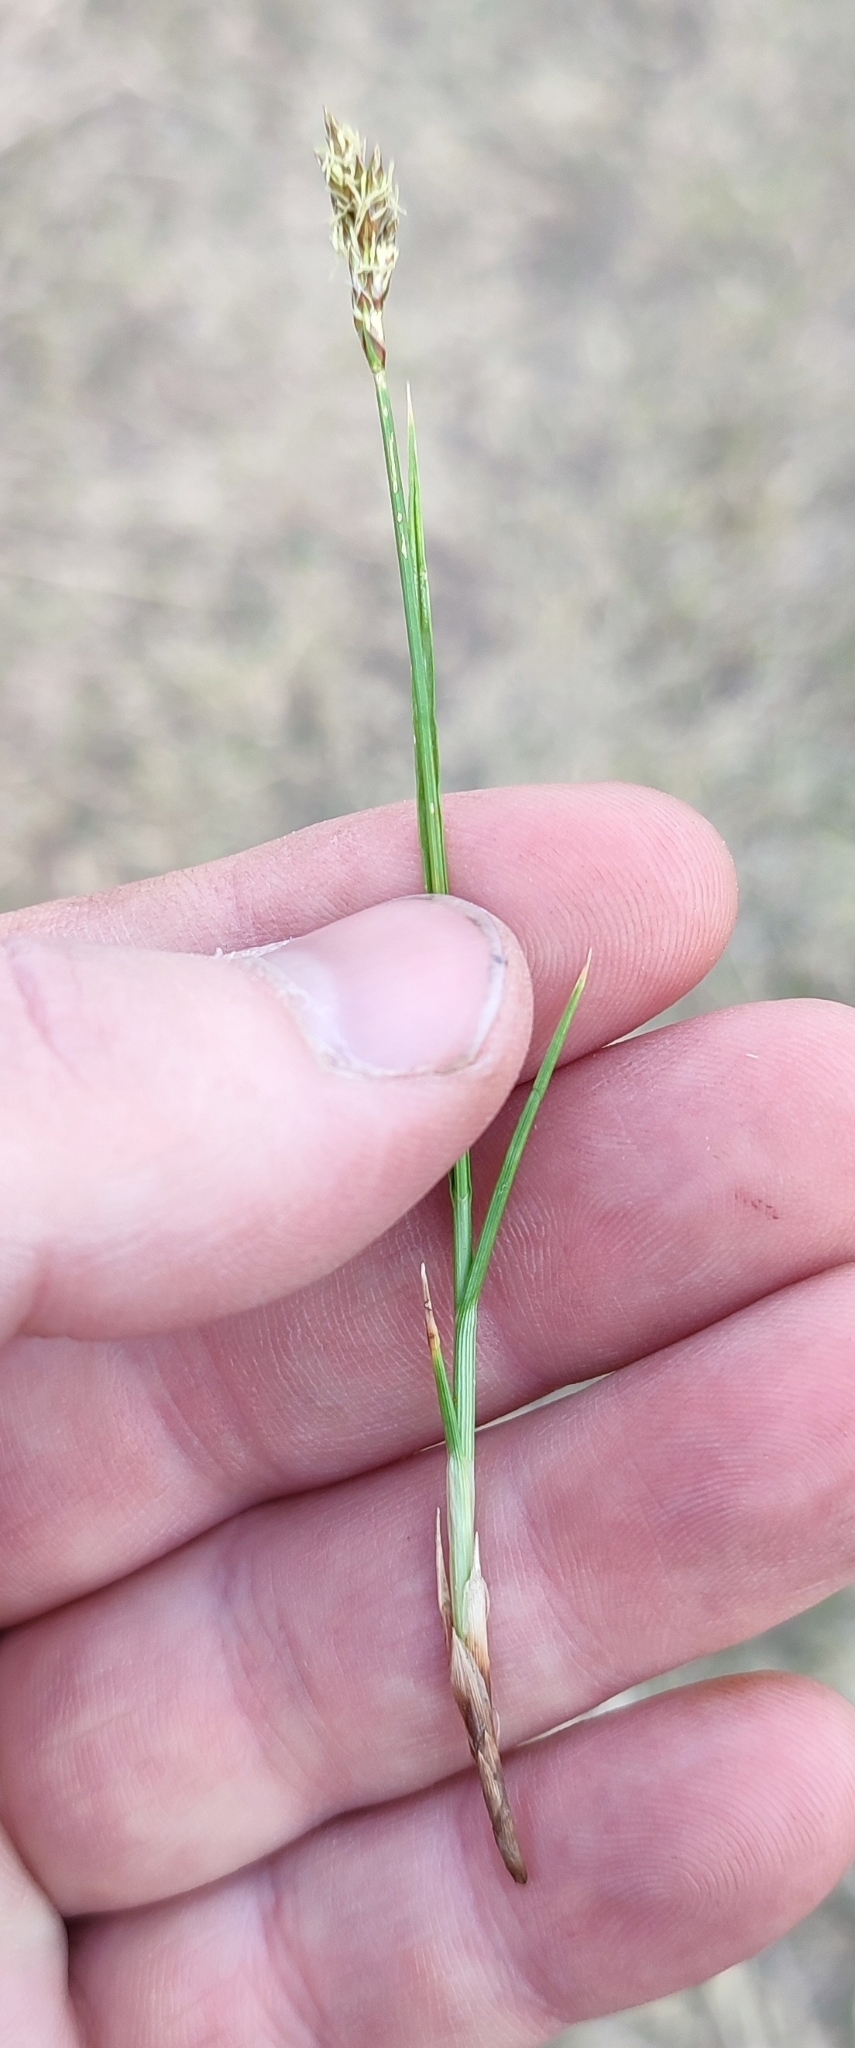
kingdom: Plantae
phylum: Tracheophyta
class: Liliopsida
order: Poales
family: Cyperaceae
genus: Carex
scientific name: Carex praecox
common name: Early sedge
